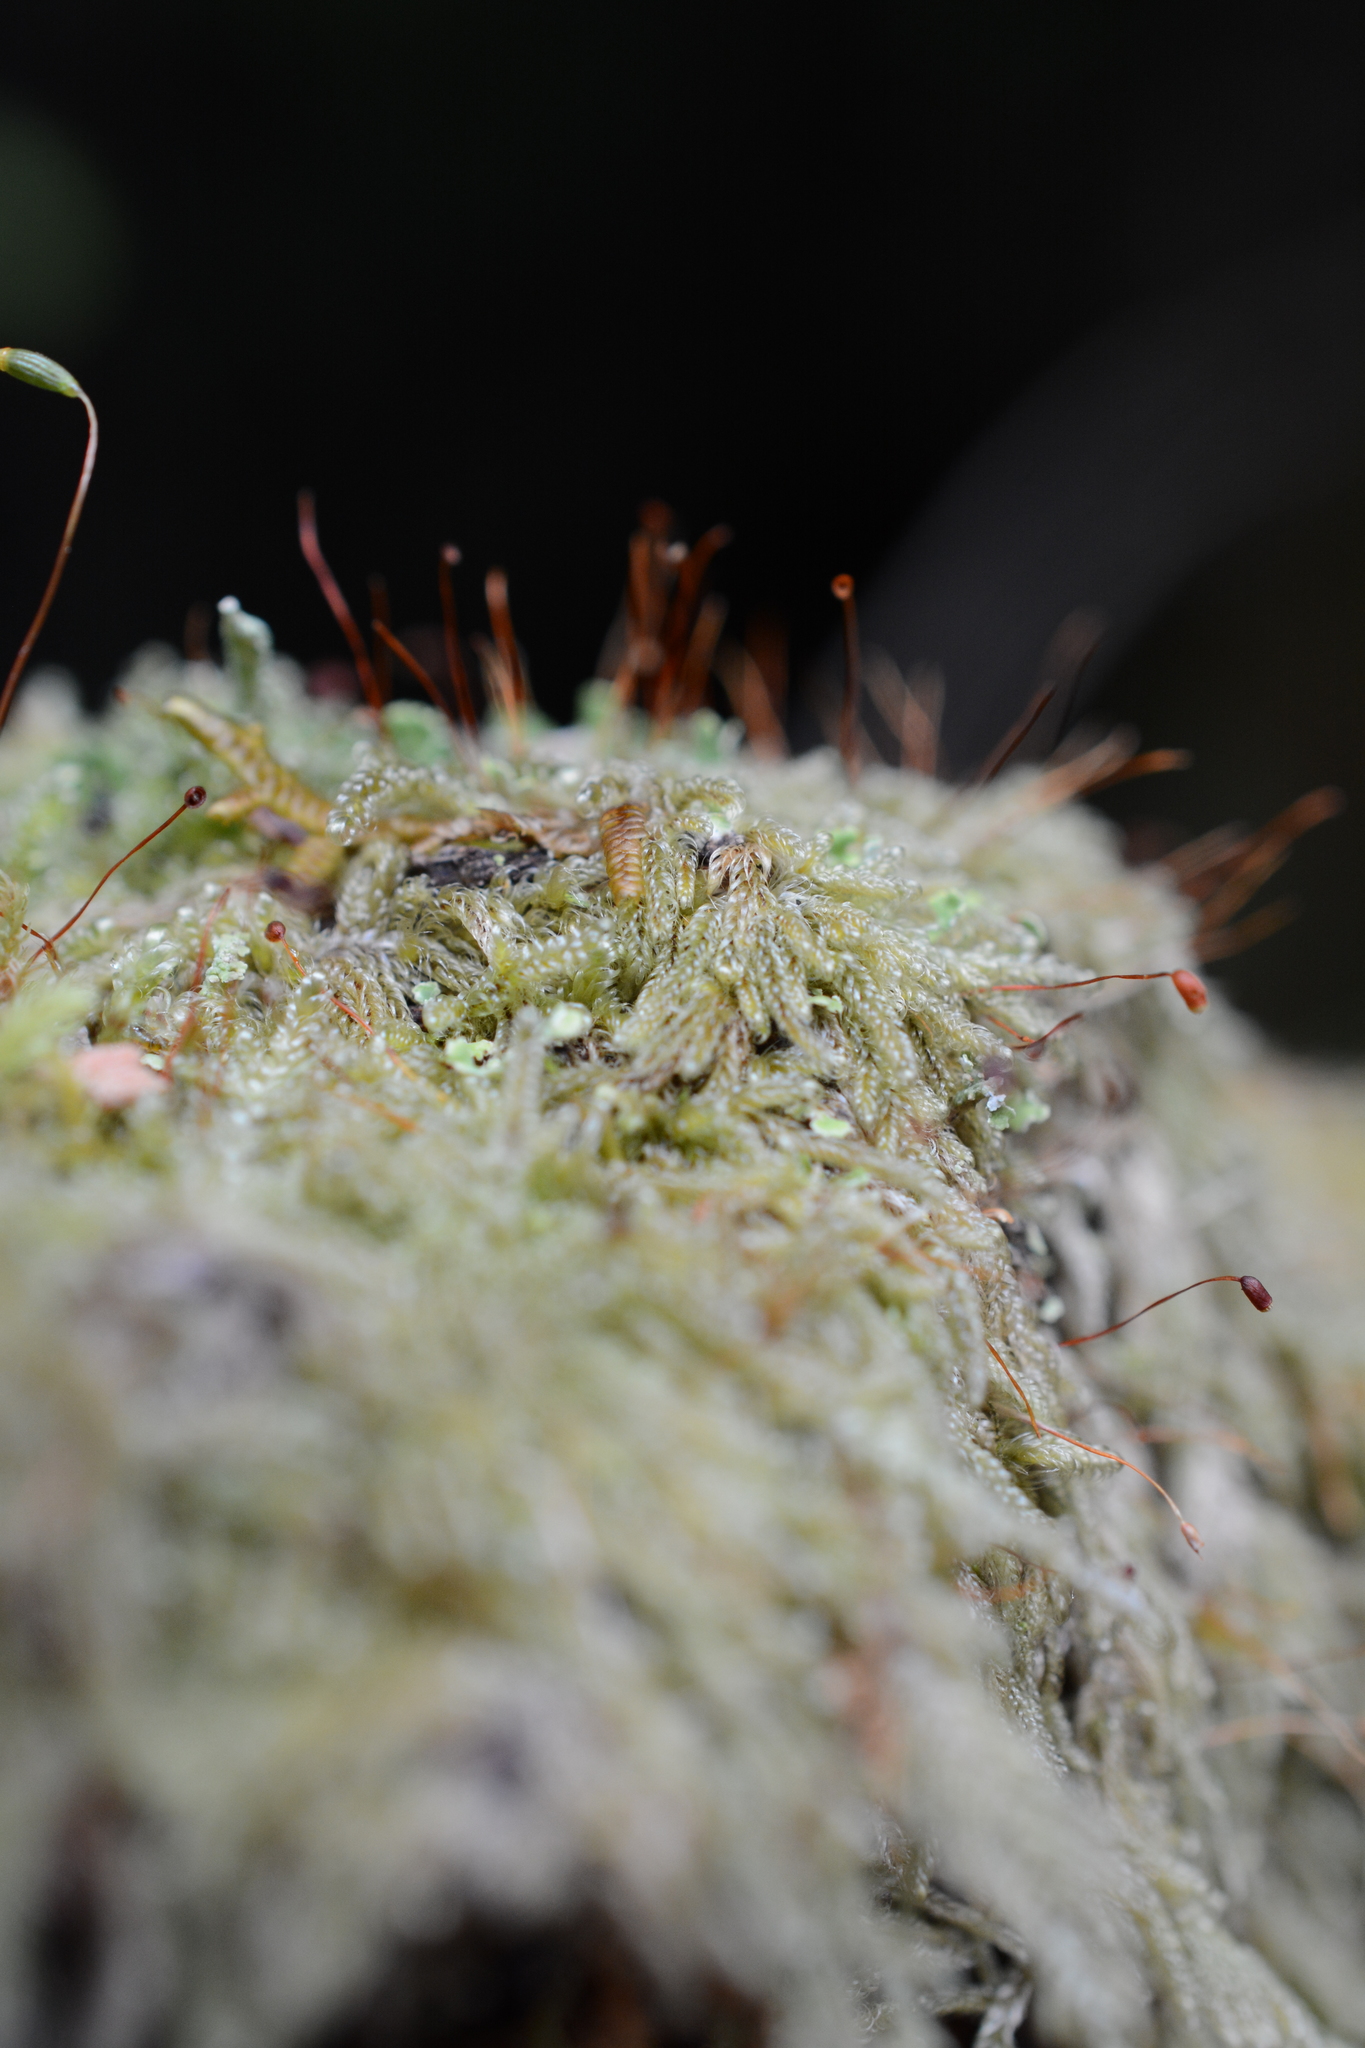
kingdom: Plantae
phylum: Bryophyta
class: Bryopsida
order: Hypnales
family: Pylaisiadelphaceae
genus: Trochophyllohypnum
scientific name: Trochophyllohypnum circinale
